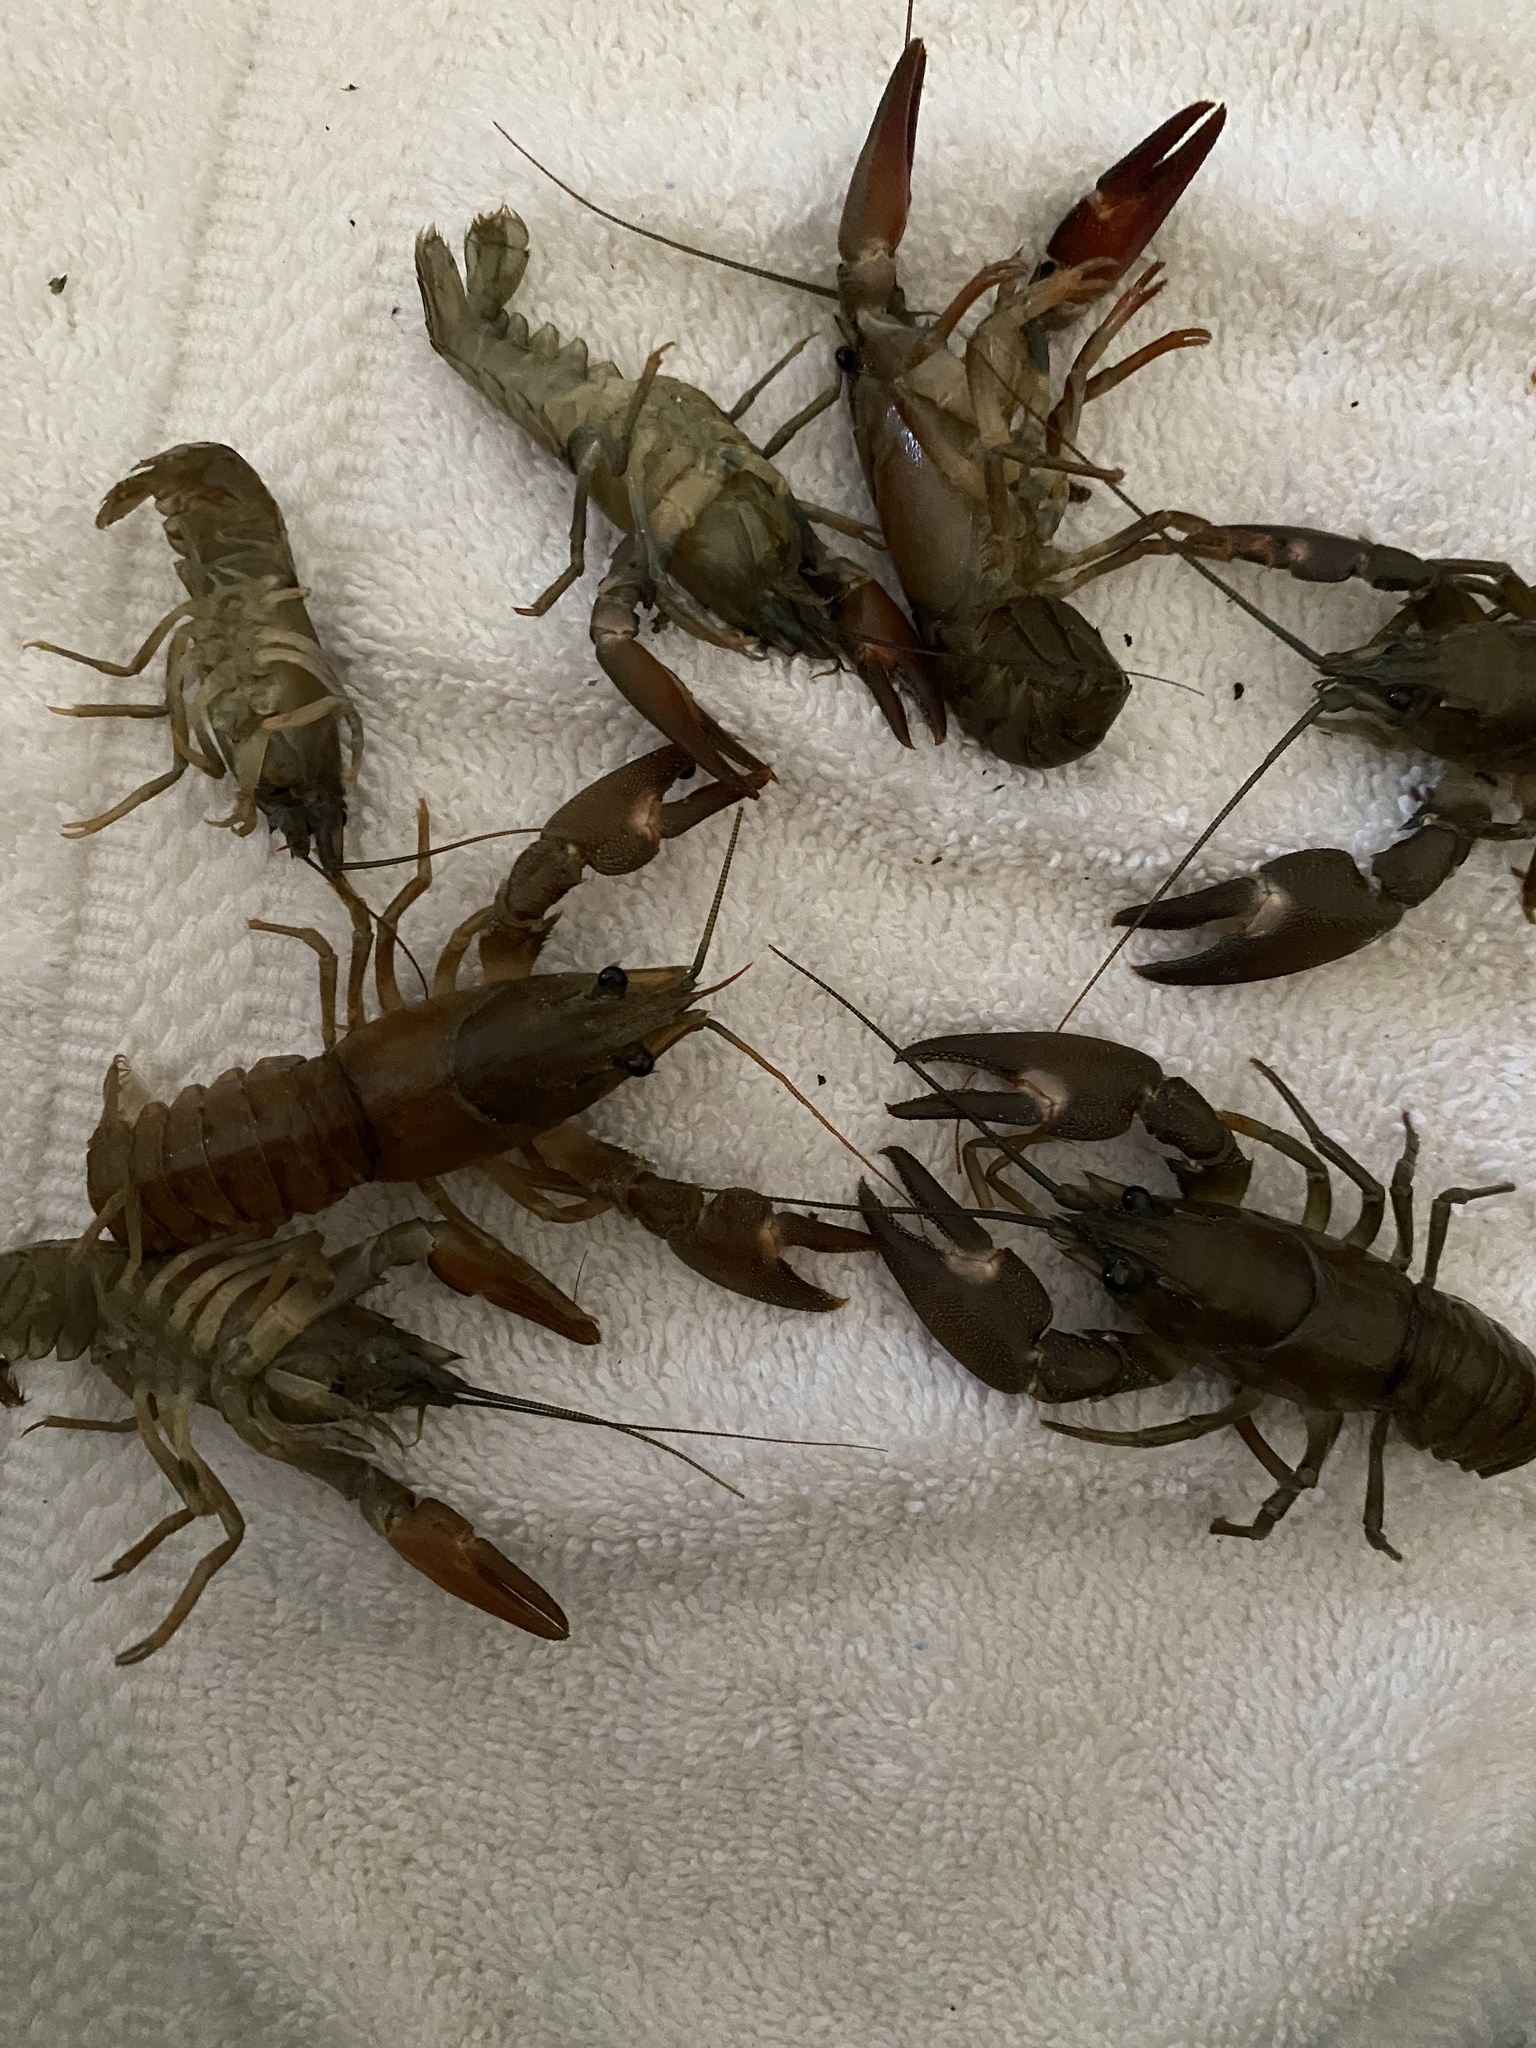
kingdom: Animalia
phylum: Arthropoda
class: Malacostraca
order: Decapoda
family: Astacidae
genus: Pacifastacus
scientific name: Pacifastacus leniusculus
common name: Signal crayfish
